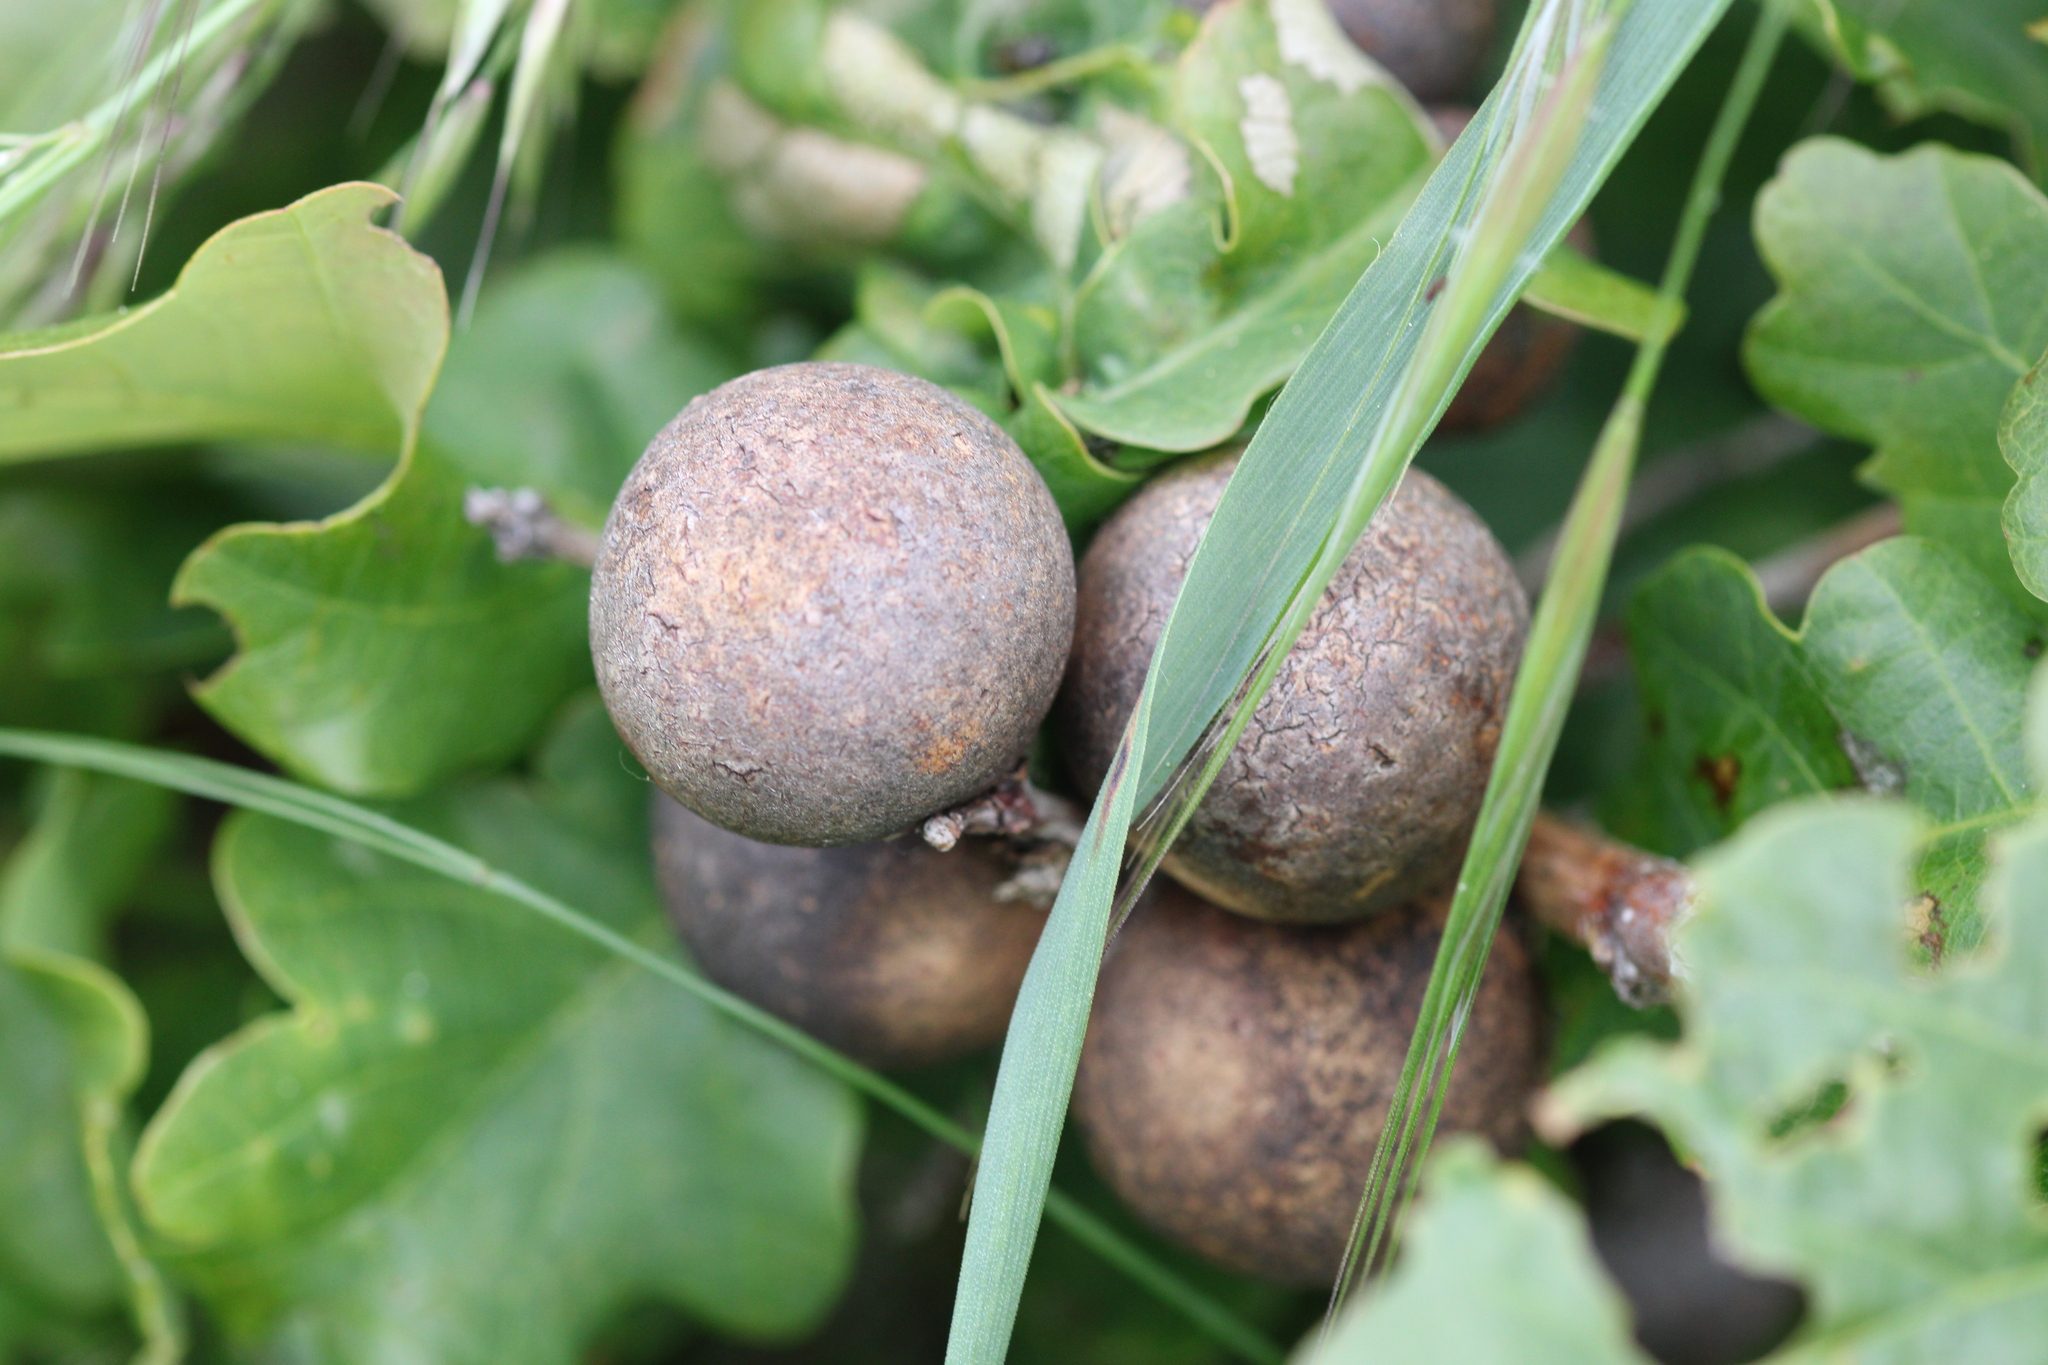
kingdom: Animalia
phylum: Arthropoda
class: Insecta
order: Hymenoptera
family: Cynipidae
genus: Andricus
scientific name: Andricus kollari
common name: Marble gall
